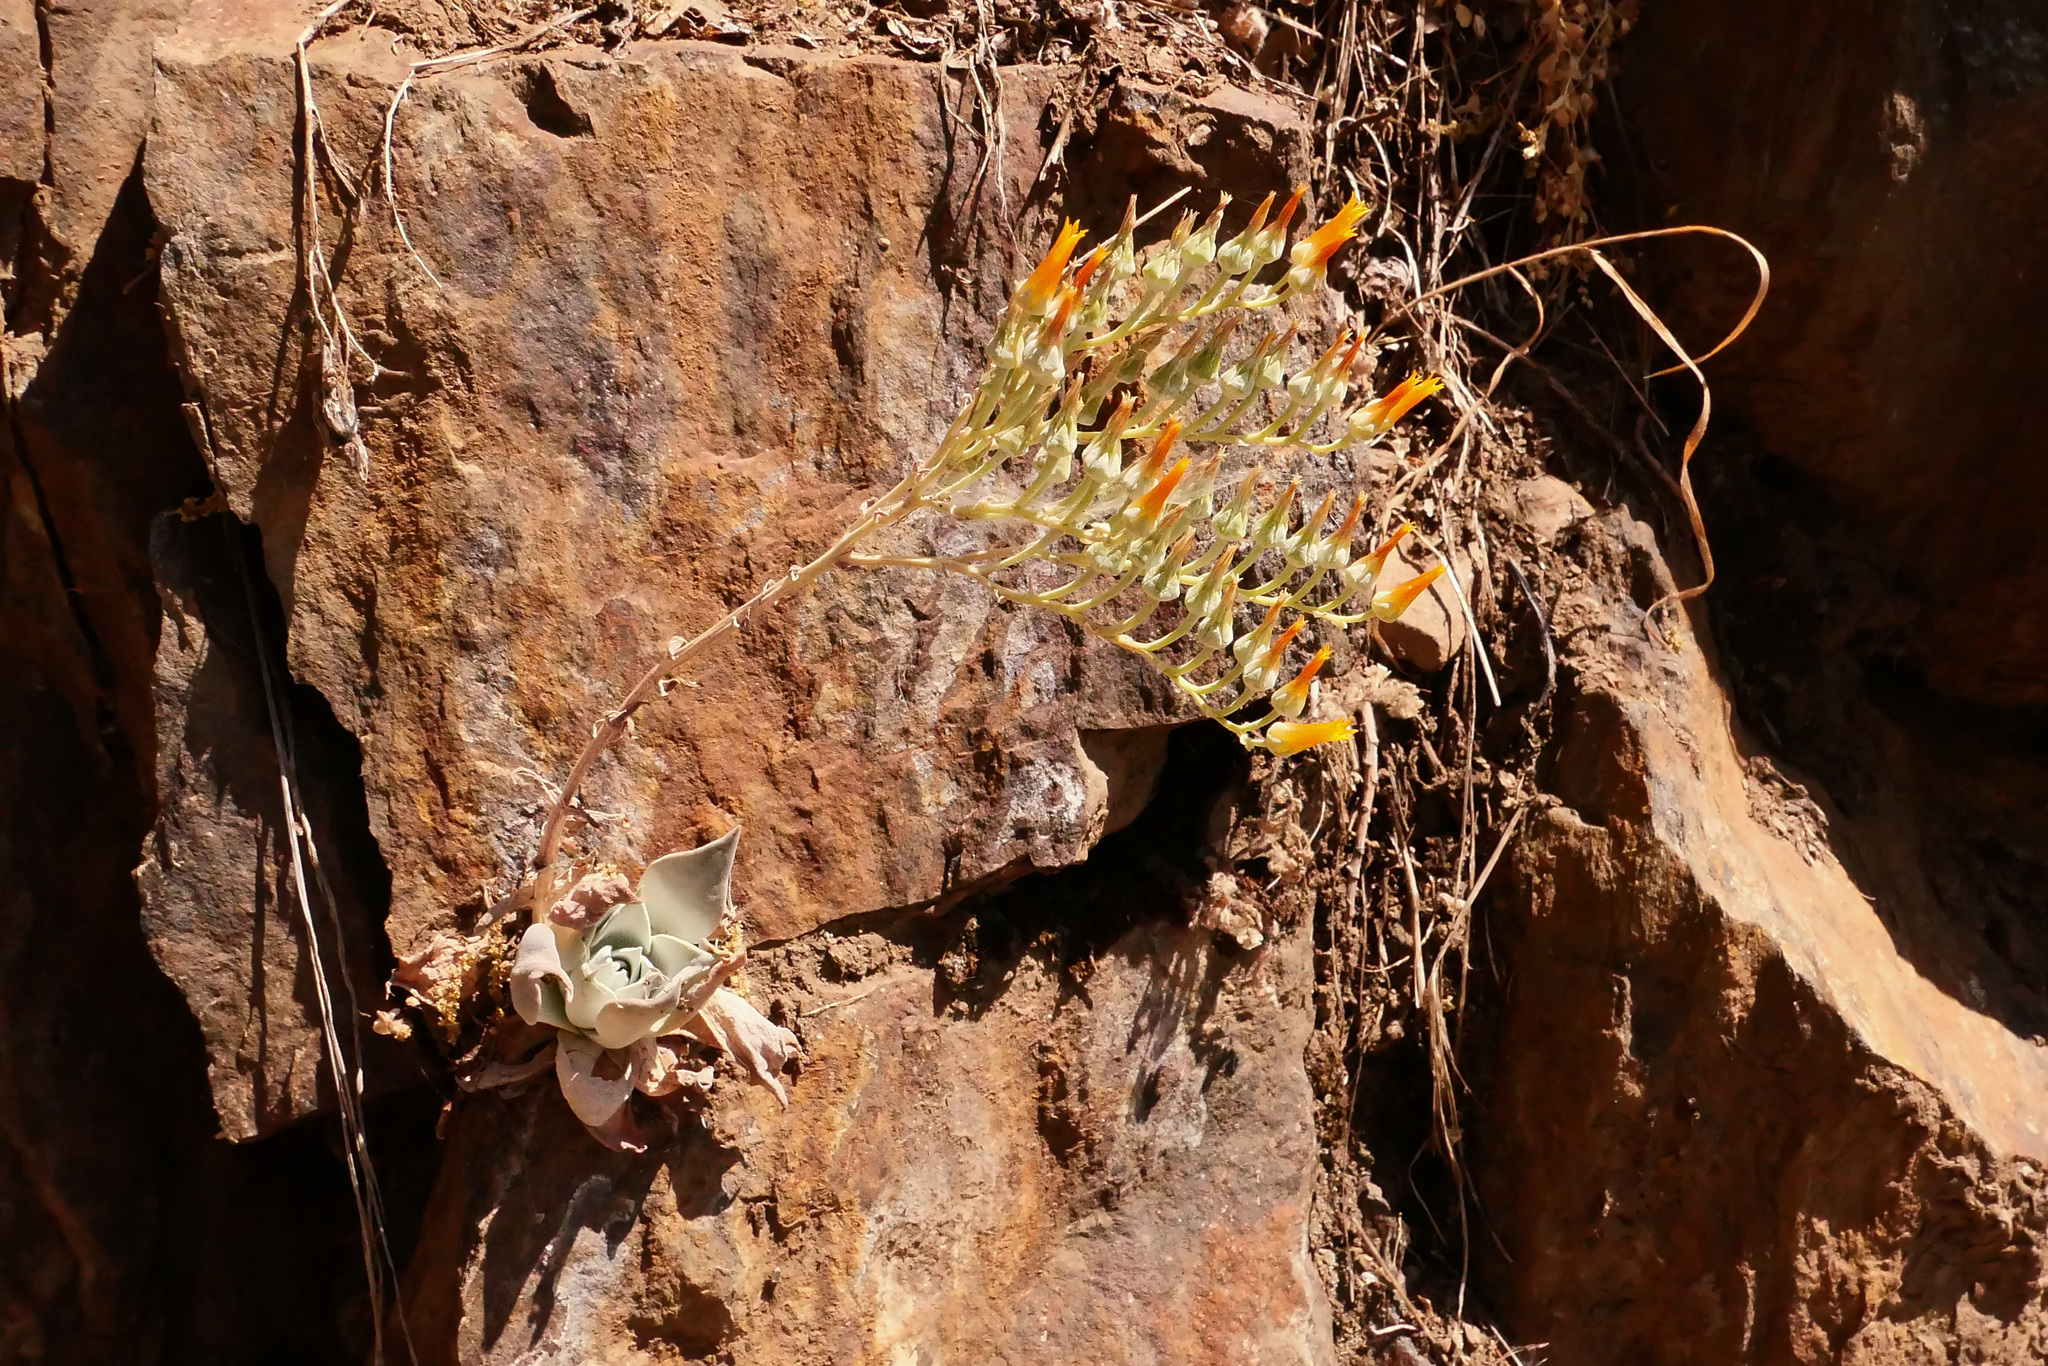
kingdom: Plantae
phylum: Tracheophyta
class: Magnoliopsida
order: Saxifragales
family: Crassulaceae
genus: Dudleya
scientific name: Dudleya cymosa
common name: Canyon dudleya
